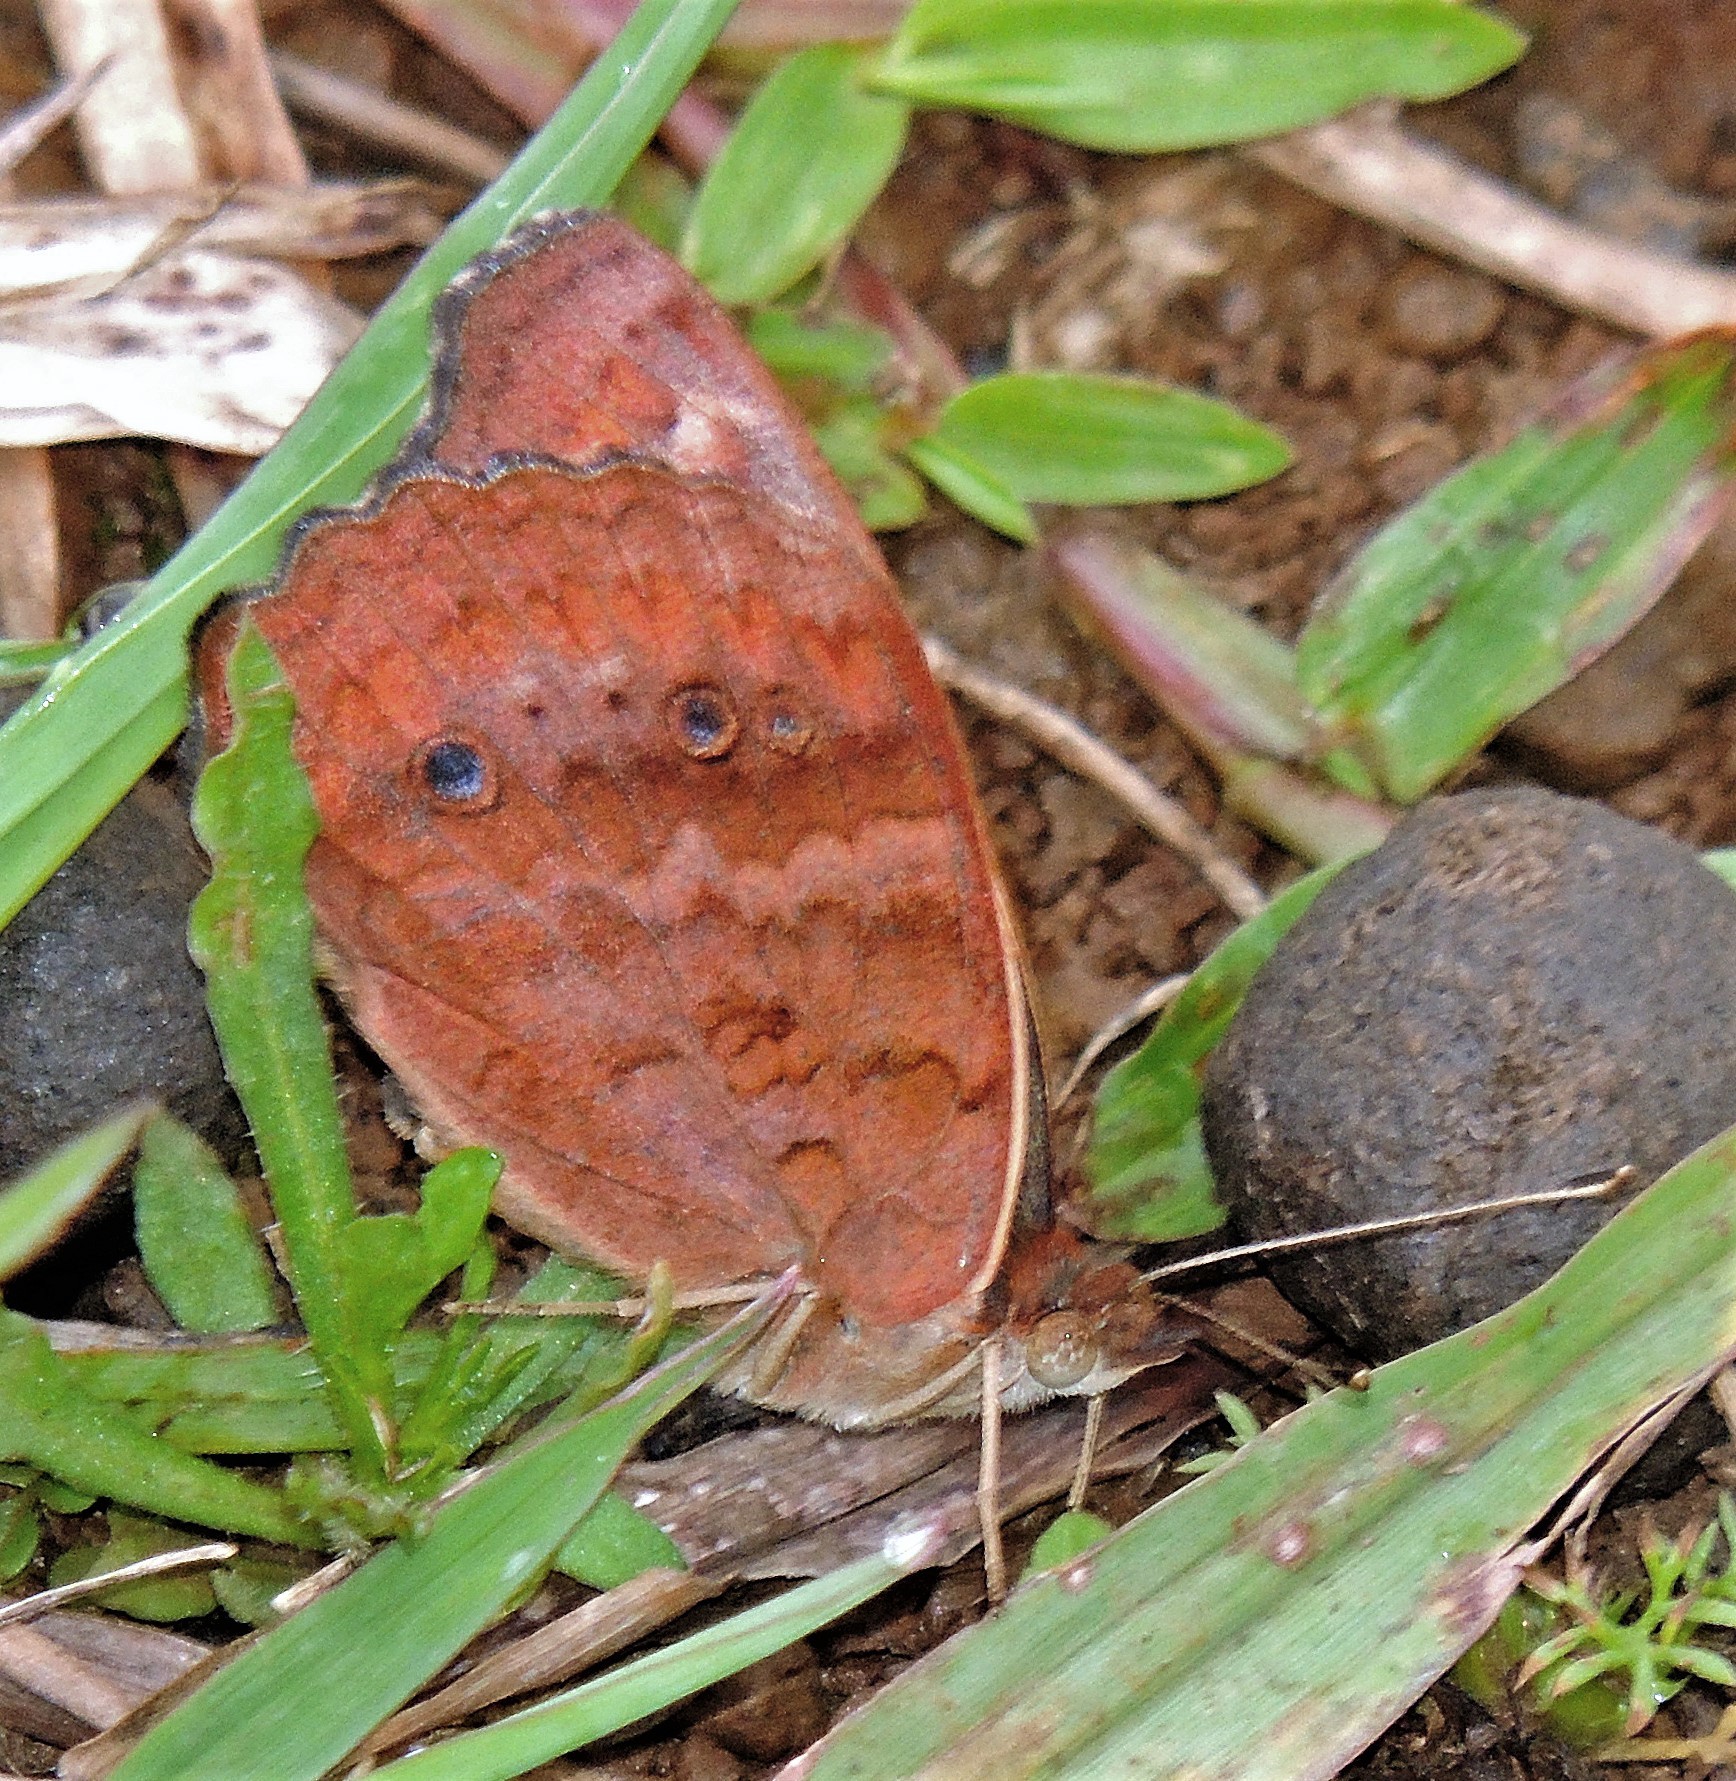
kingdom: Animalia
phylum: Arthropoda
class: Insecta
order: Lepidoptera
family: Nymphalidae
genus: Junonia
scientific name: Junonia lavinia
